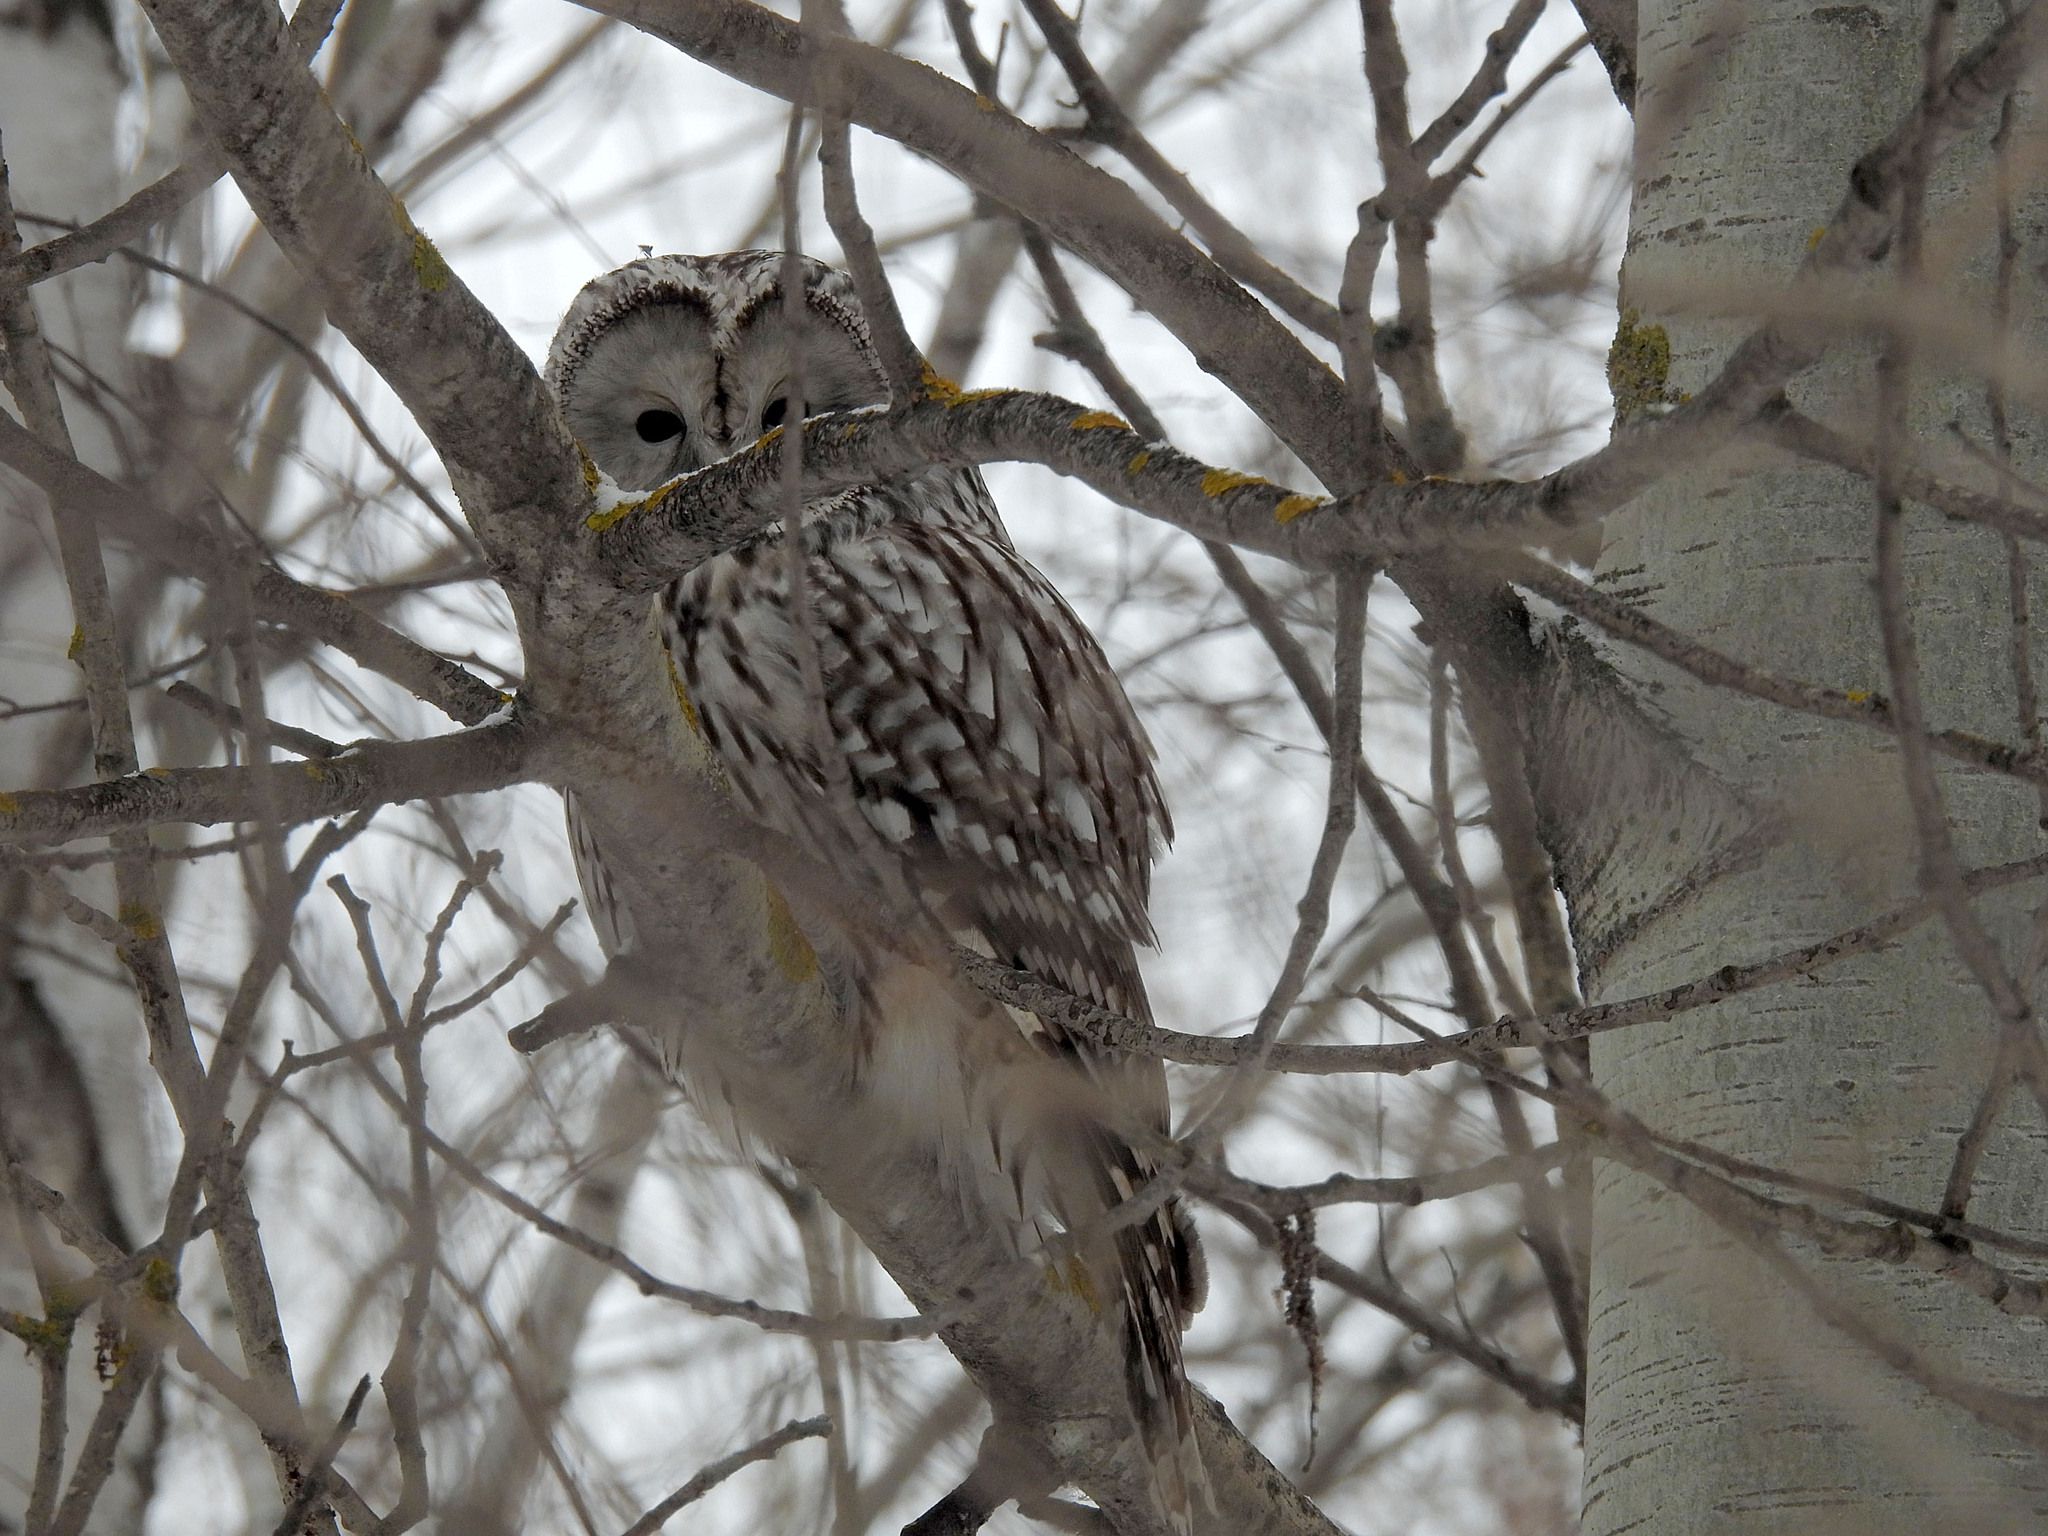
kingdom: Animalia
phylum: Chordata
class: Aves
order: Strigiformes
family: Strigidae
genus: Strix
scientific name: Strix uralensis
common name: Ural owl
